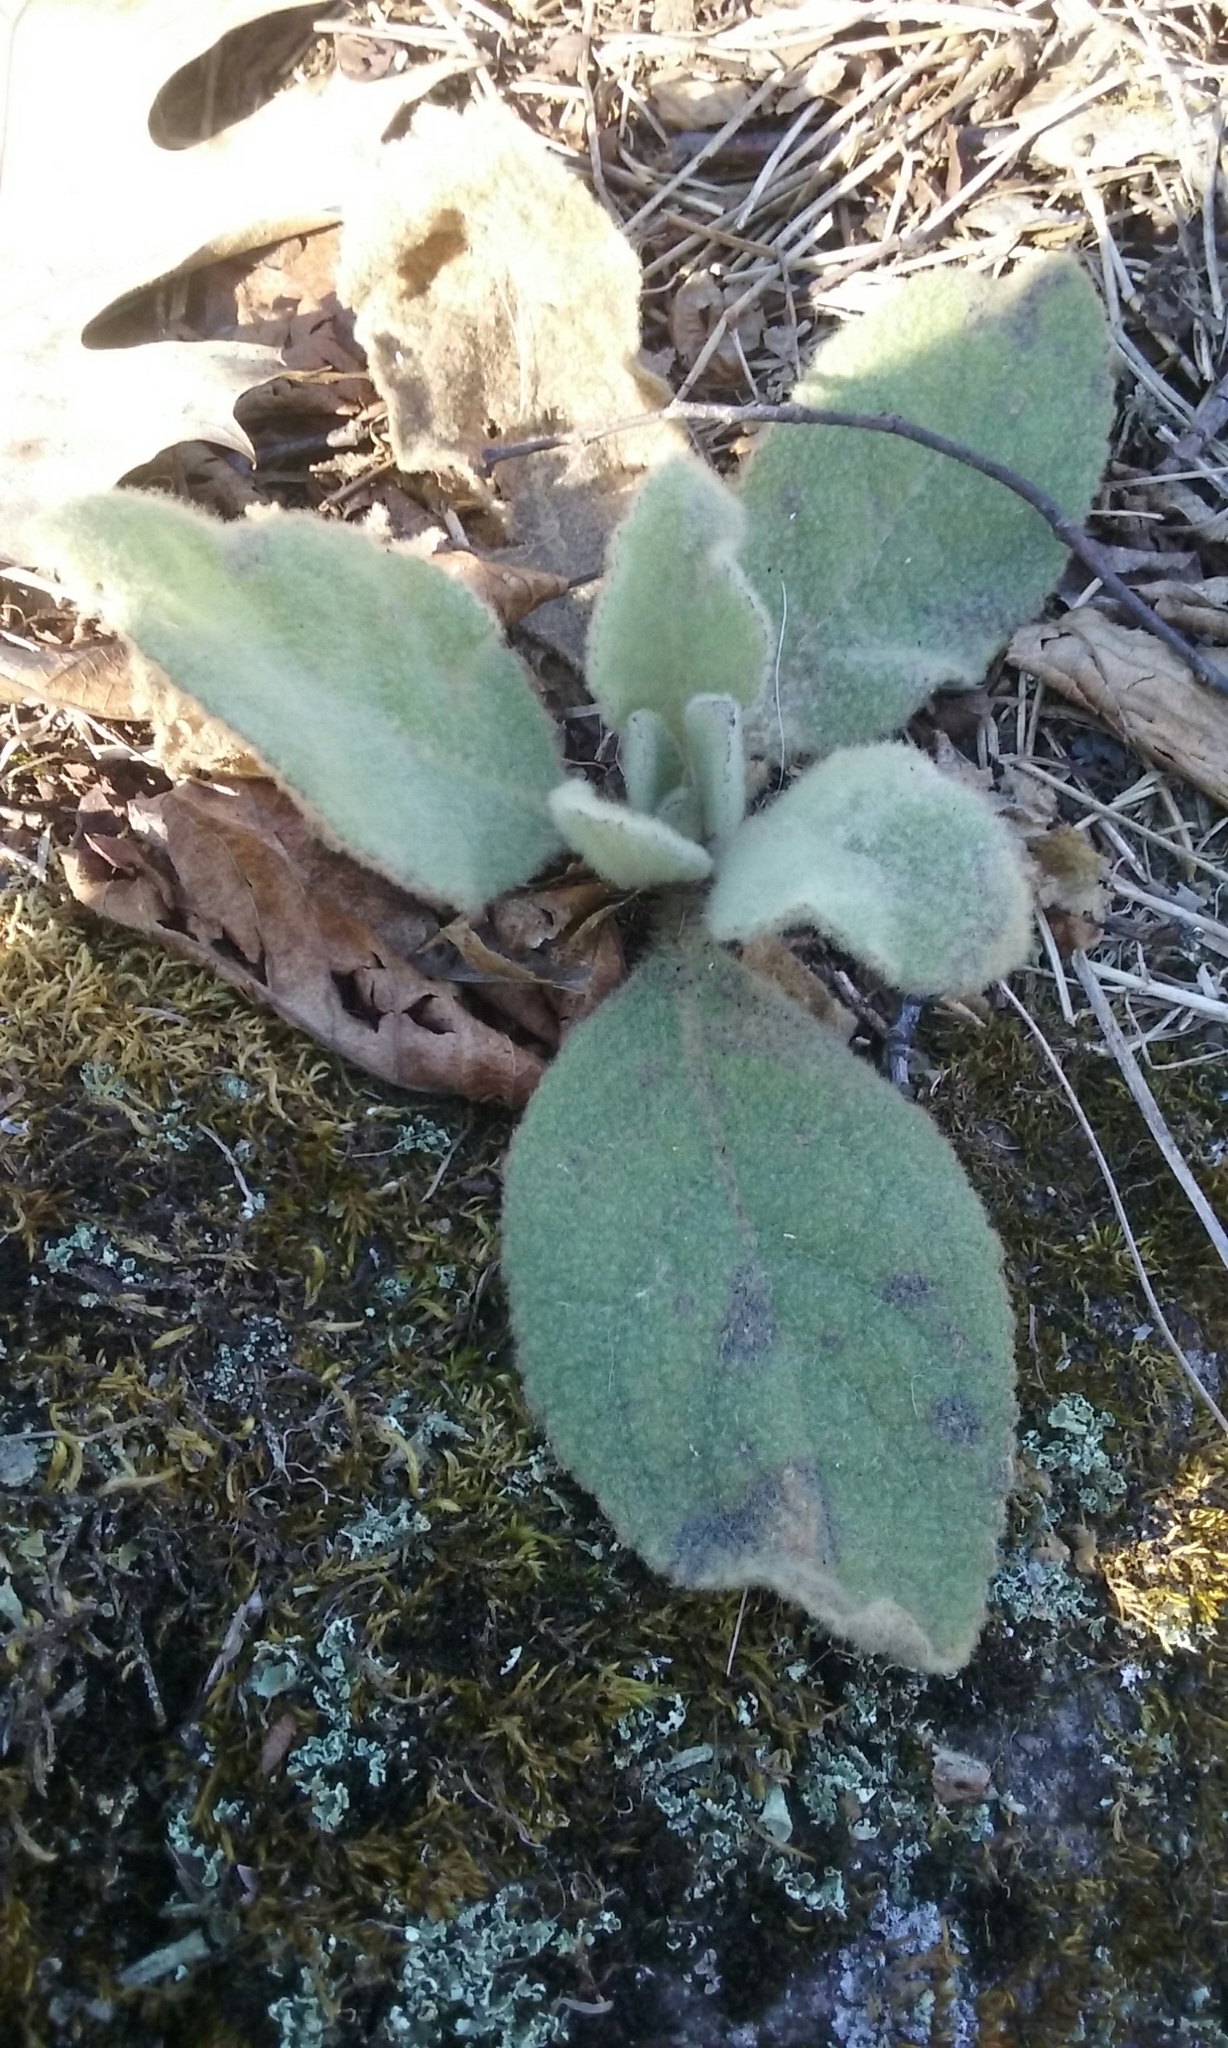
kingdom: Plantae
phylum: Tracheophyta
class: Magnoliopsida
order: Lamiales
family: Scrophulariaceae
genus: Verbascum
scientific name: Verbascum thapsus
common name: Common mullein
